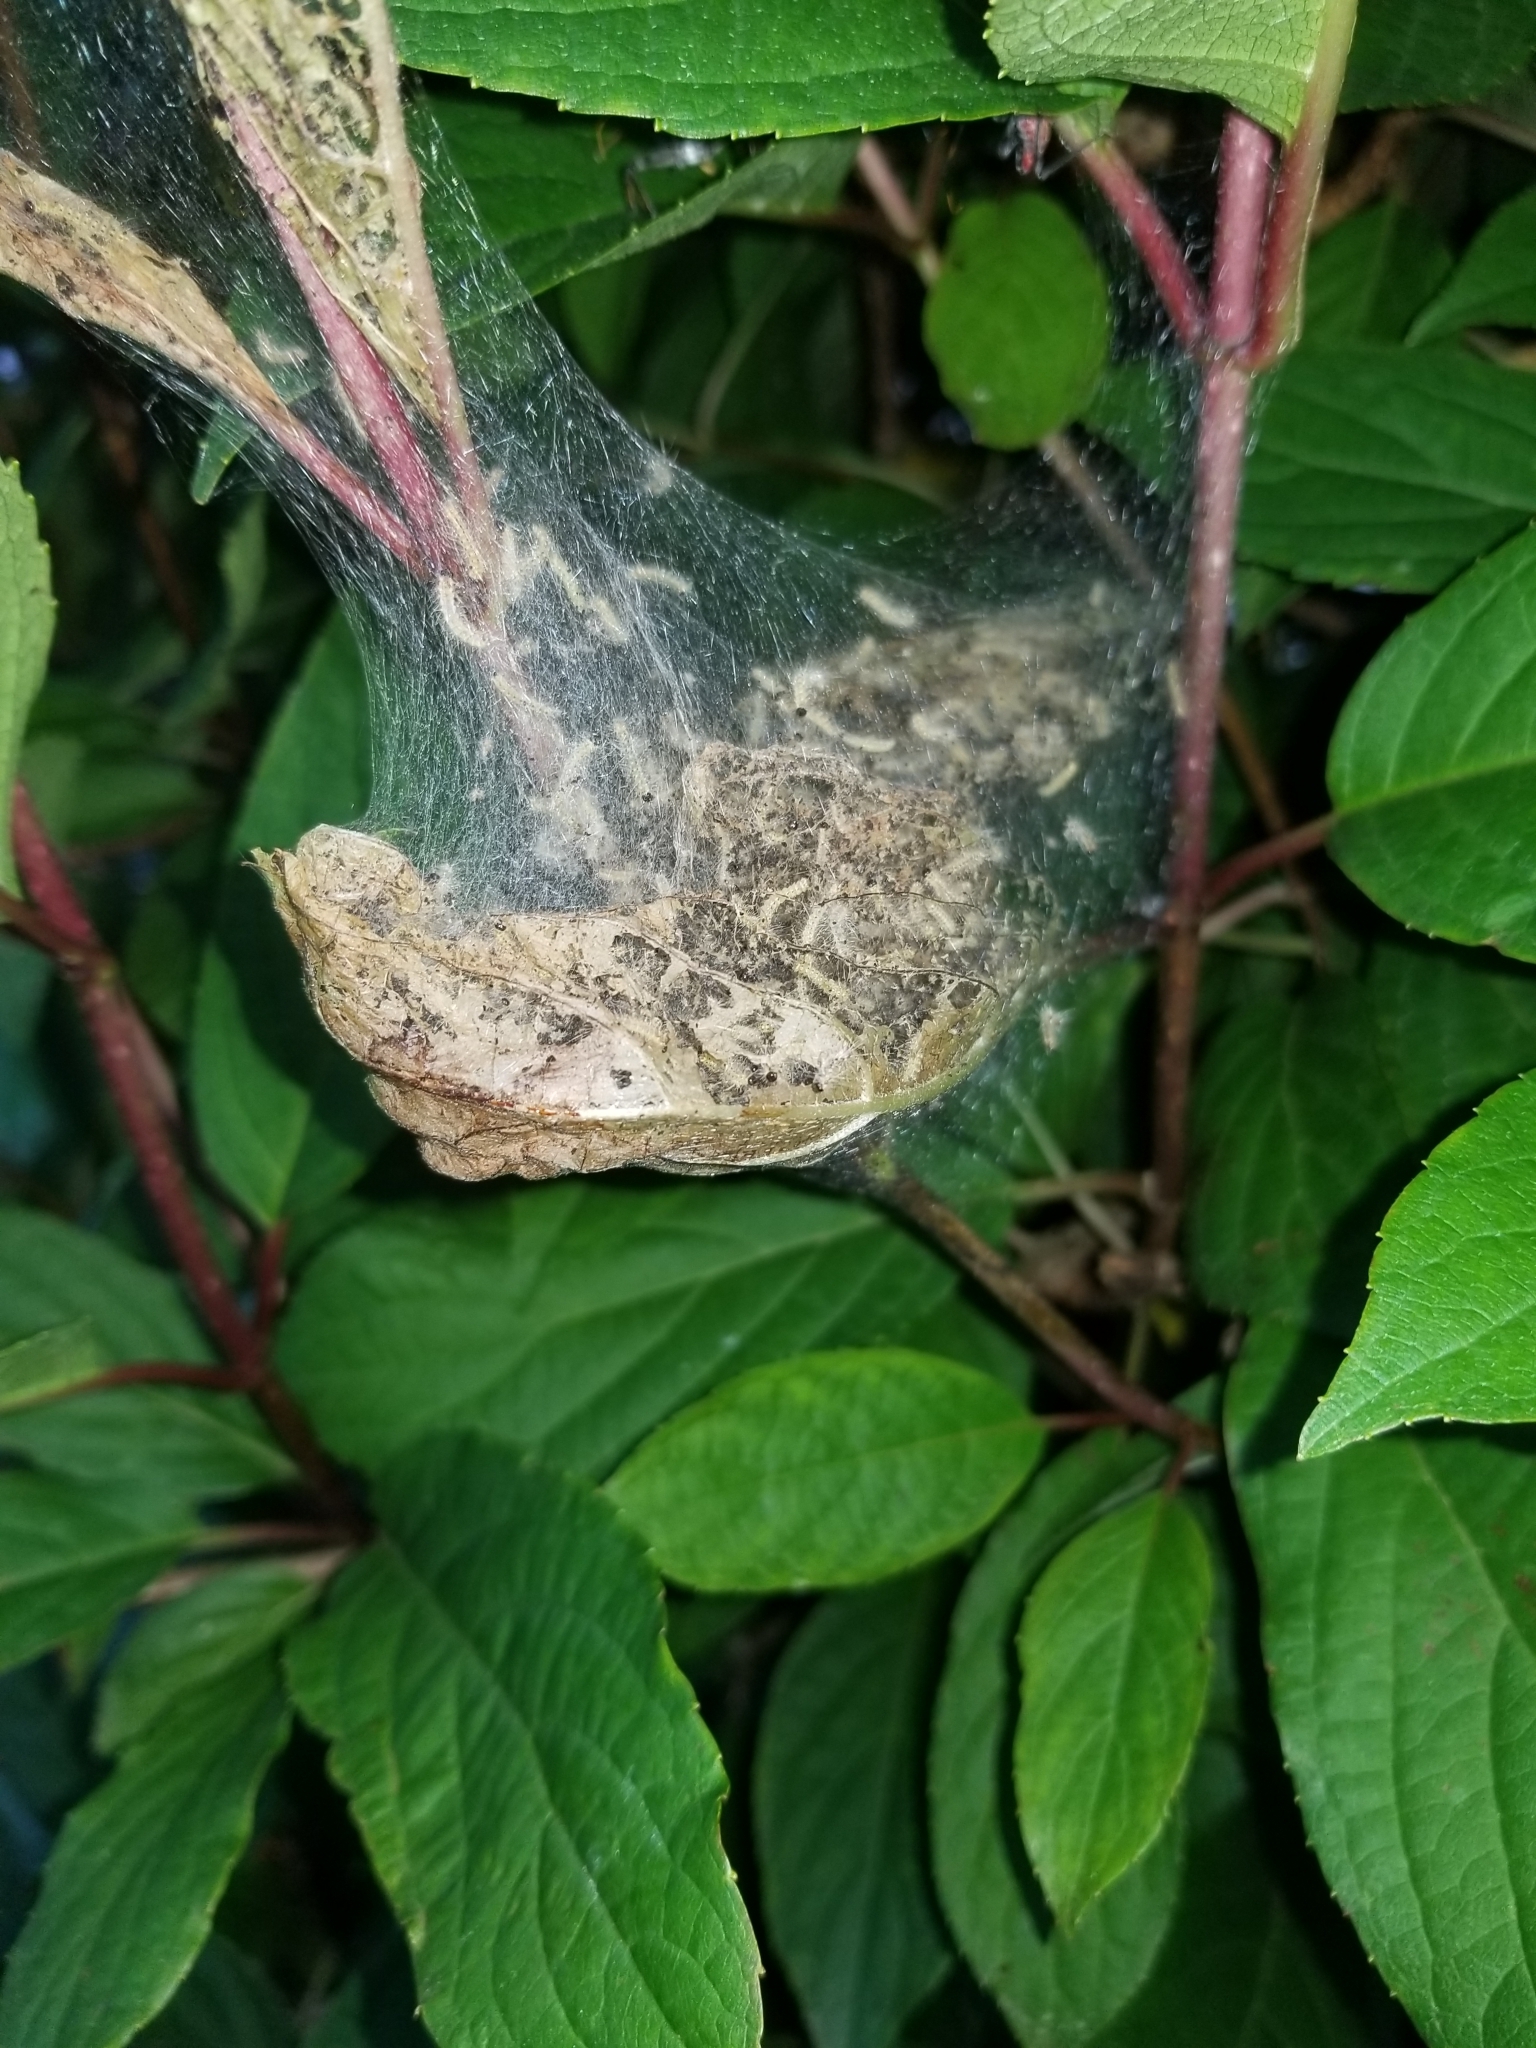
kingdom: Animalia
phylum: Arthropoda
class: Insecta
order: Lepidoptera
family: Erebidae
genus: Hyphantria
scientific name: Hyphantria cunea
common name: American white moth
